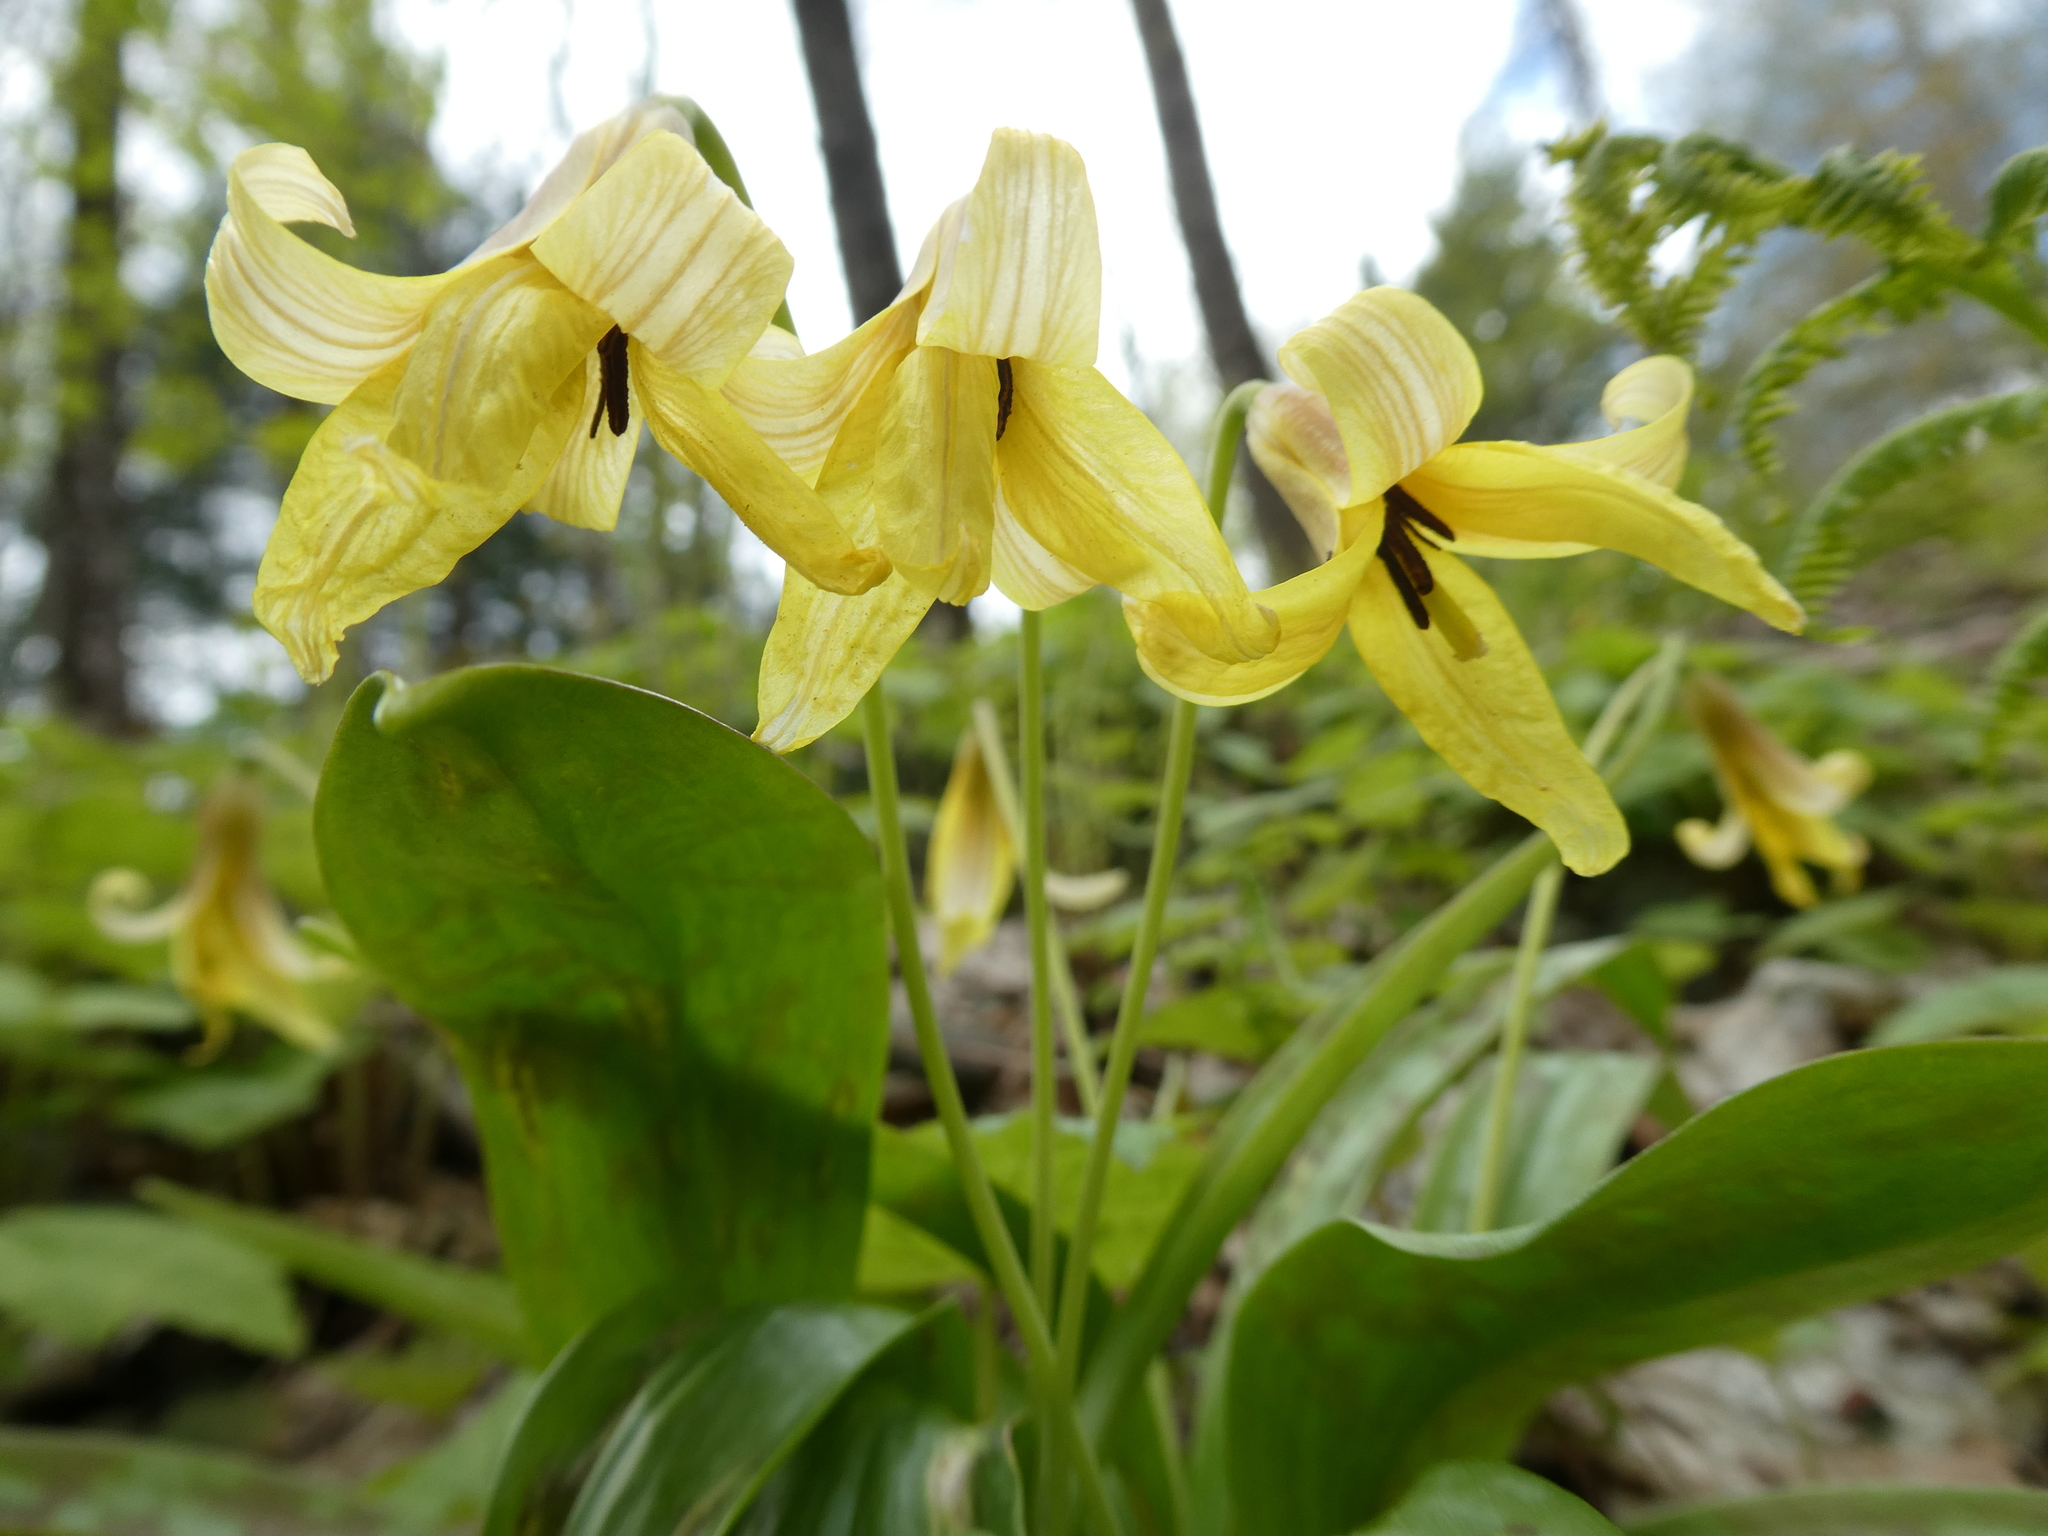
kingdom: Plantae
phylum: Tracheophyta
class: Liliopsida
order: Liliales
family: Liliaceae
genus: Erythronium
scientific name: Erythronium americanum
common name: Yellow adder's-tongue
